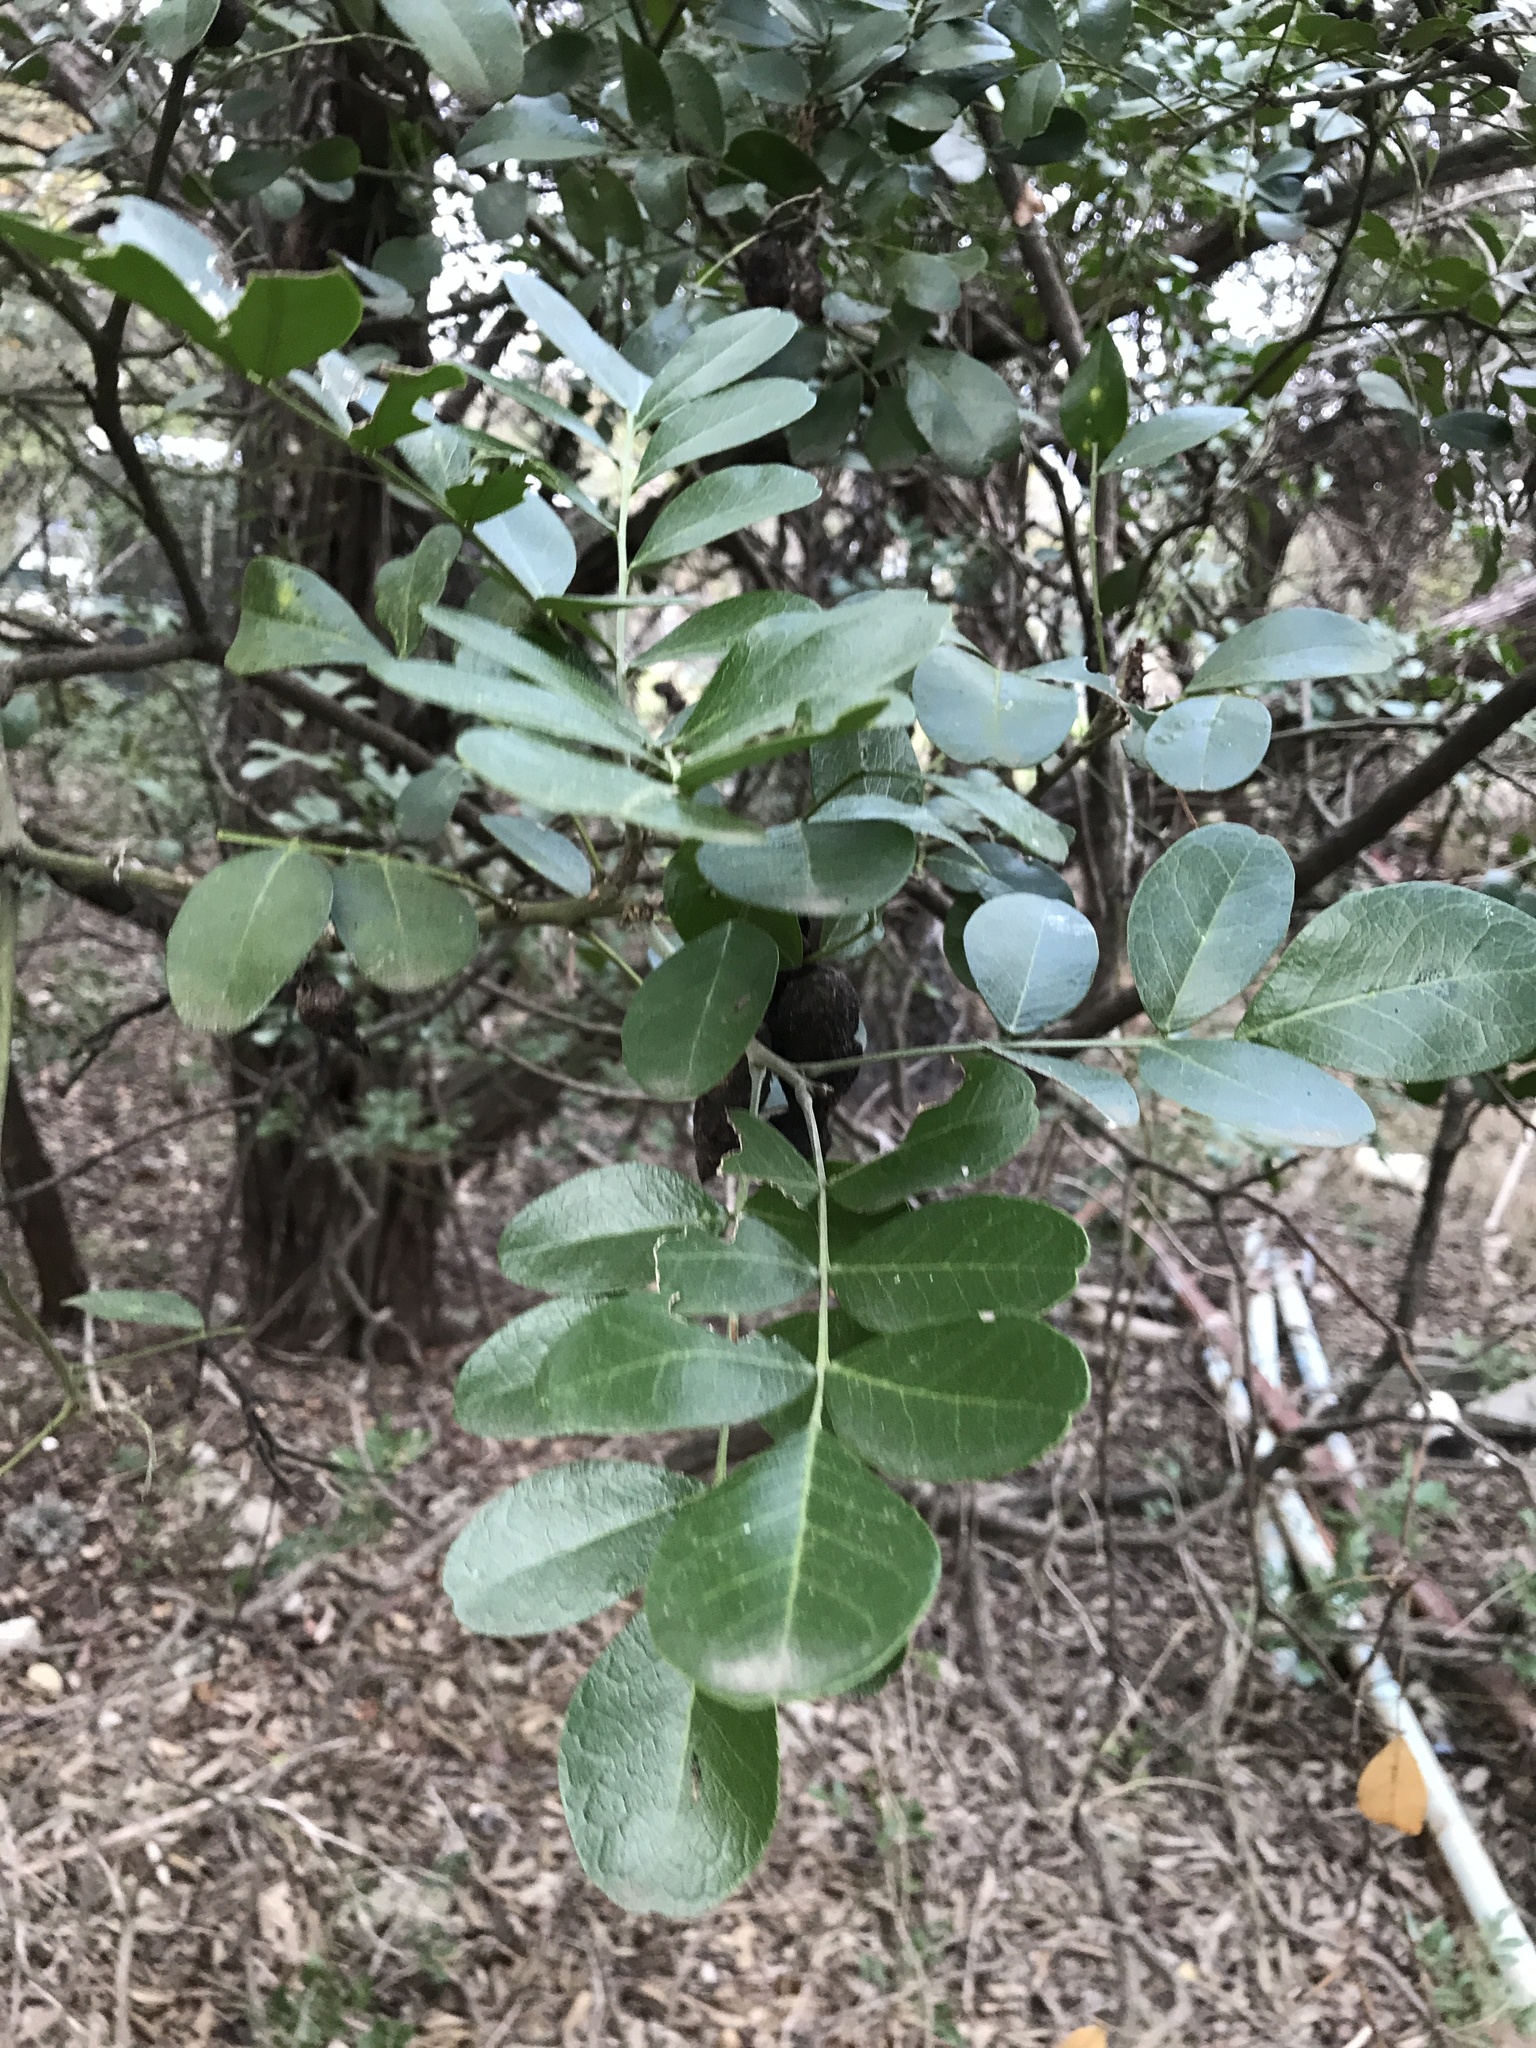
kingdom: Plantae
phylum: Tracheophyta
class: Magnoliopsida
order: Fabales
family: Fabaceae
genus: Dermatophyllum
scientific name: Dermatophyllum secundiflorum
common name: Texas-mountain-laurel
